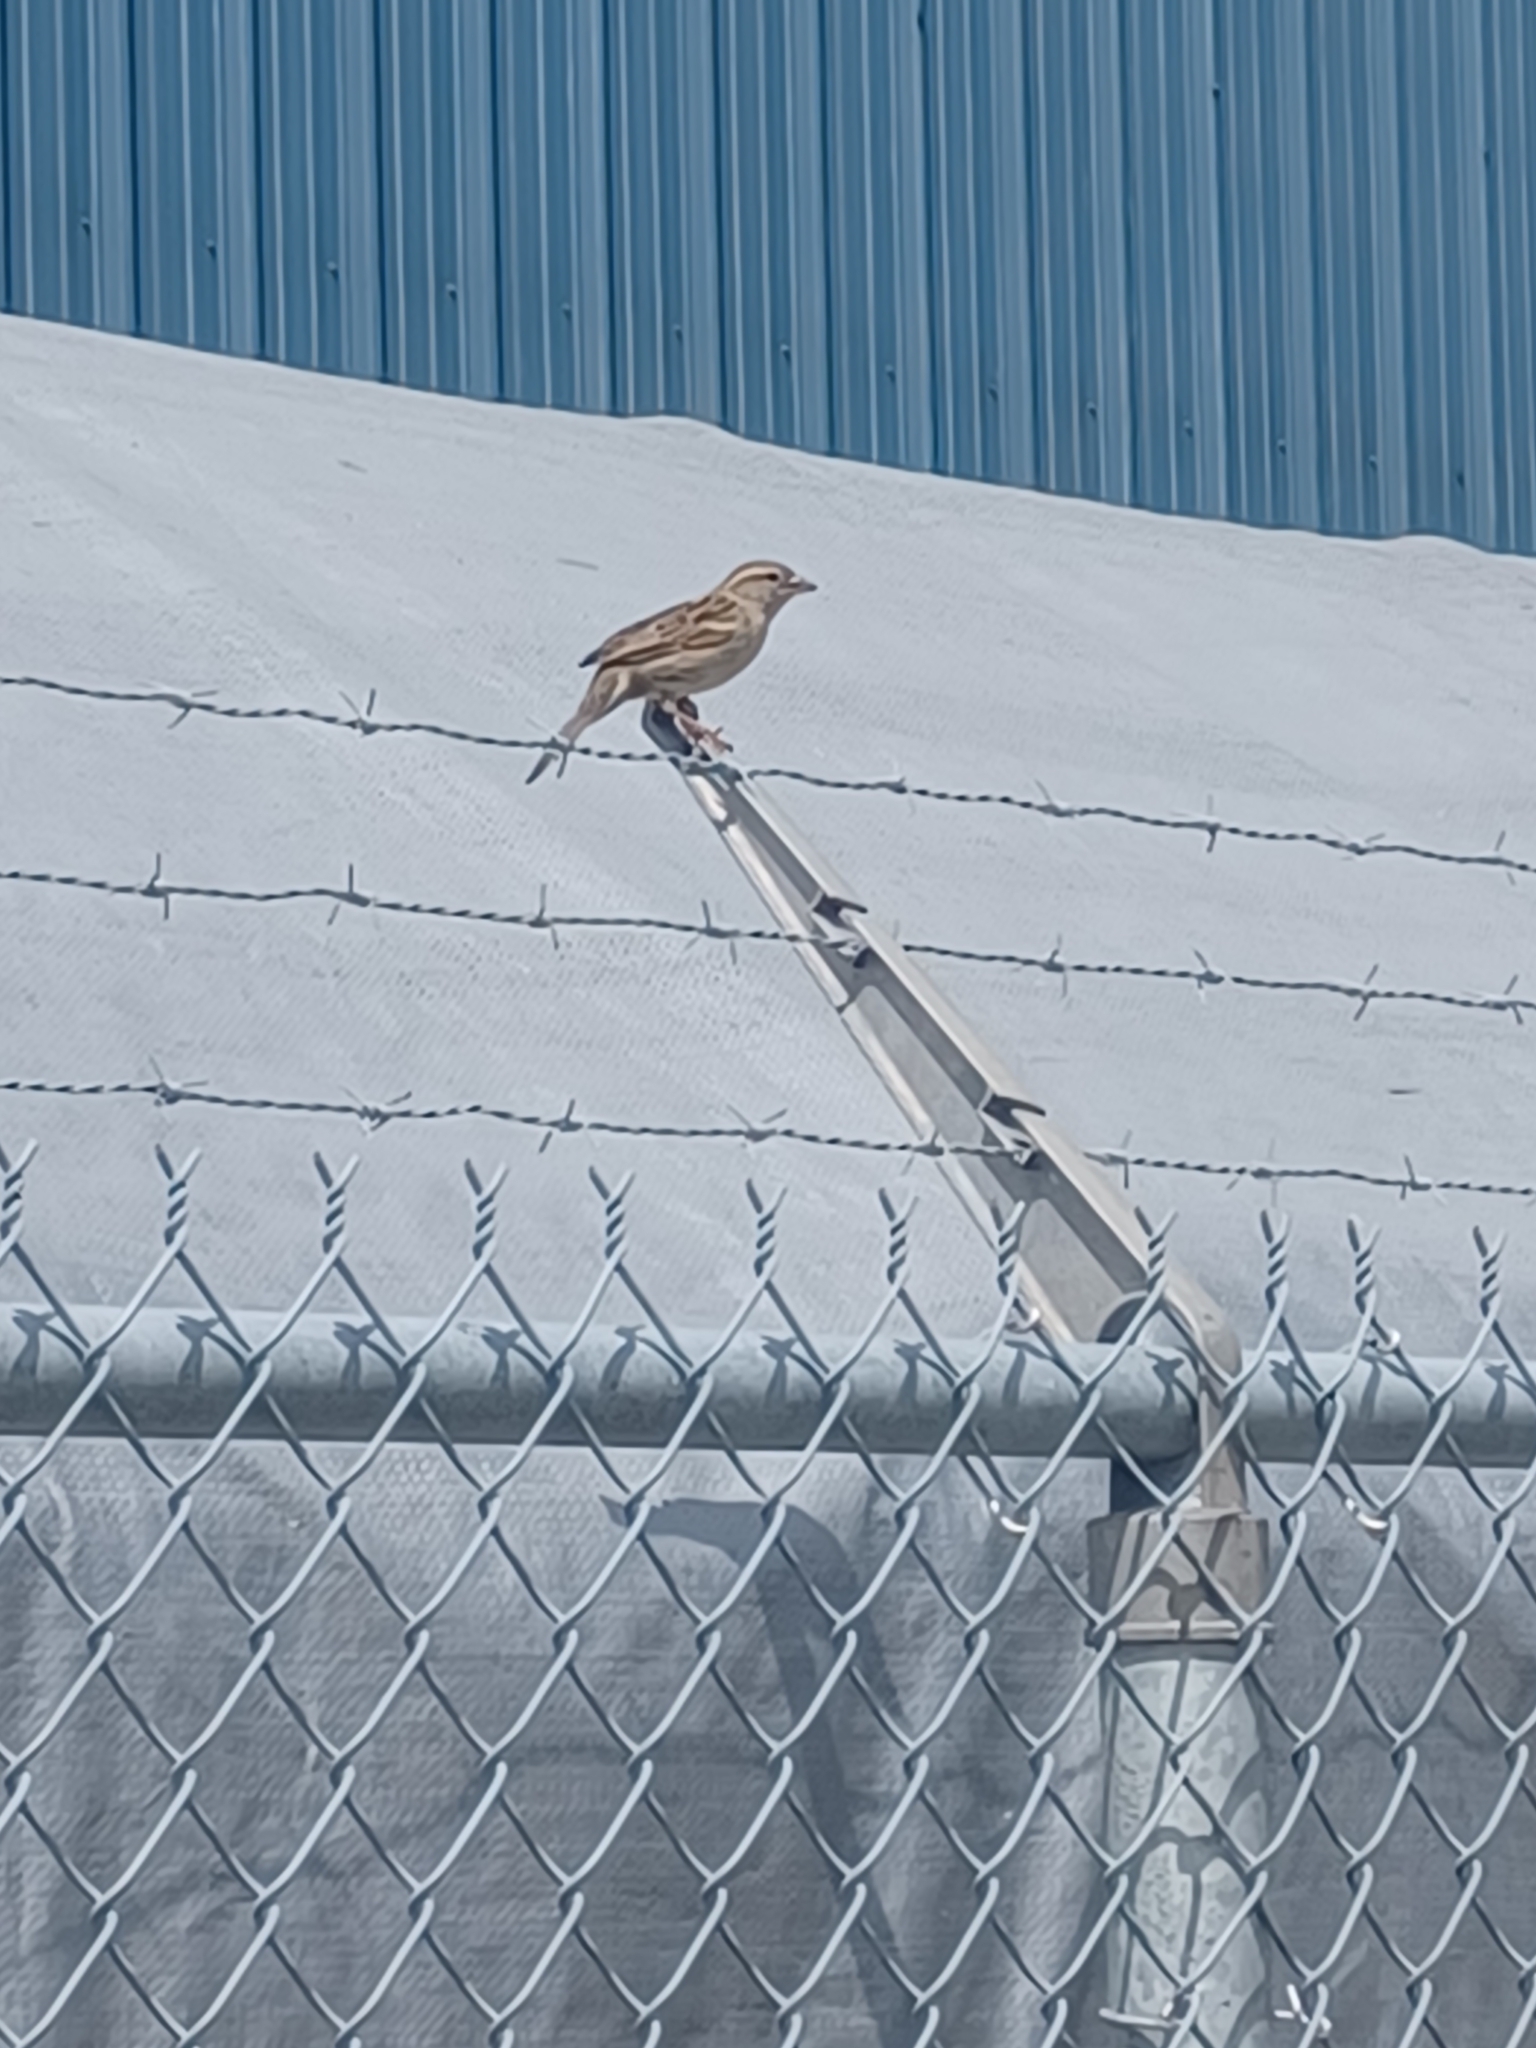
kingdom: Animalia
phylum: Chordata
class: Aves
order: Passeriformes
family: Passeridae
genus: Passer
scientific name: Passer domesticus
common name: House sparrow
